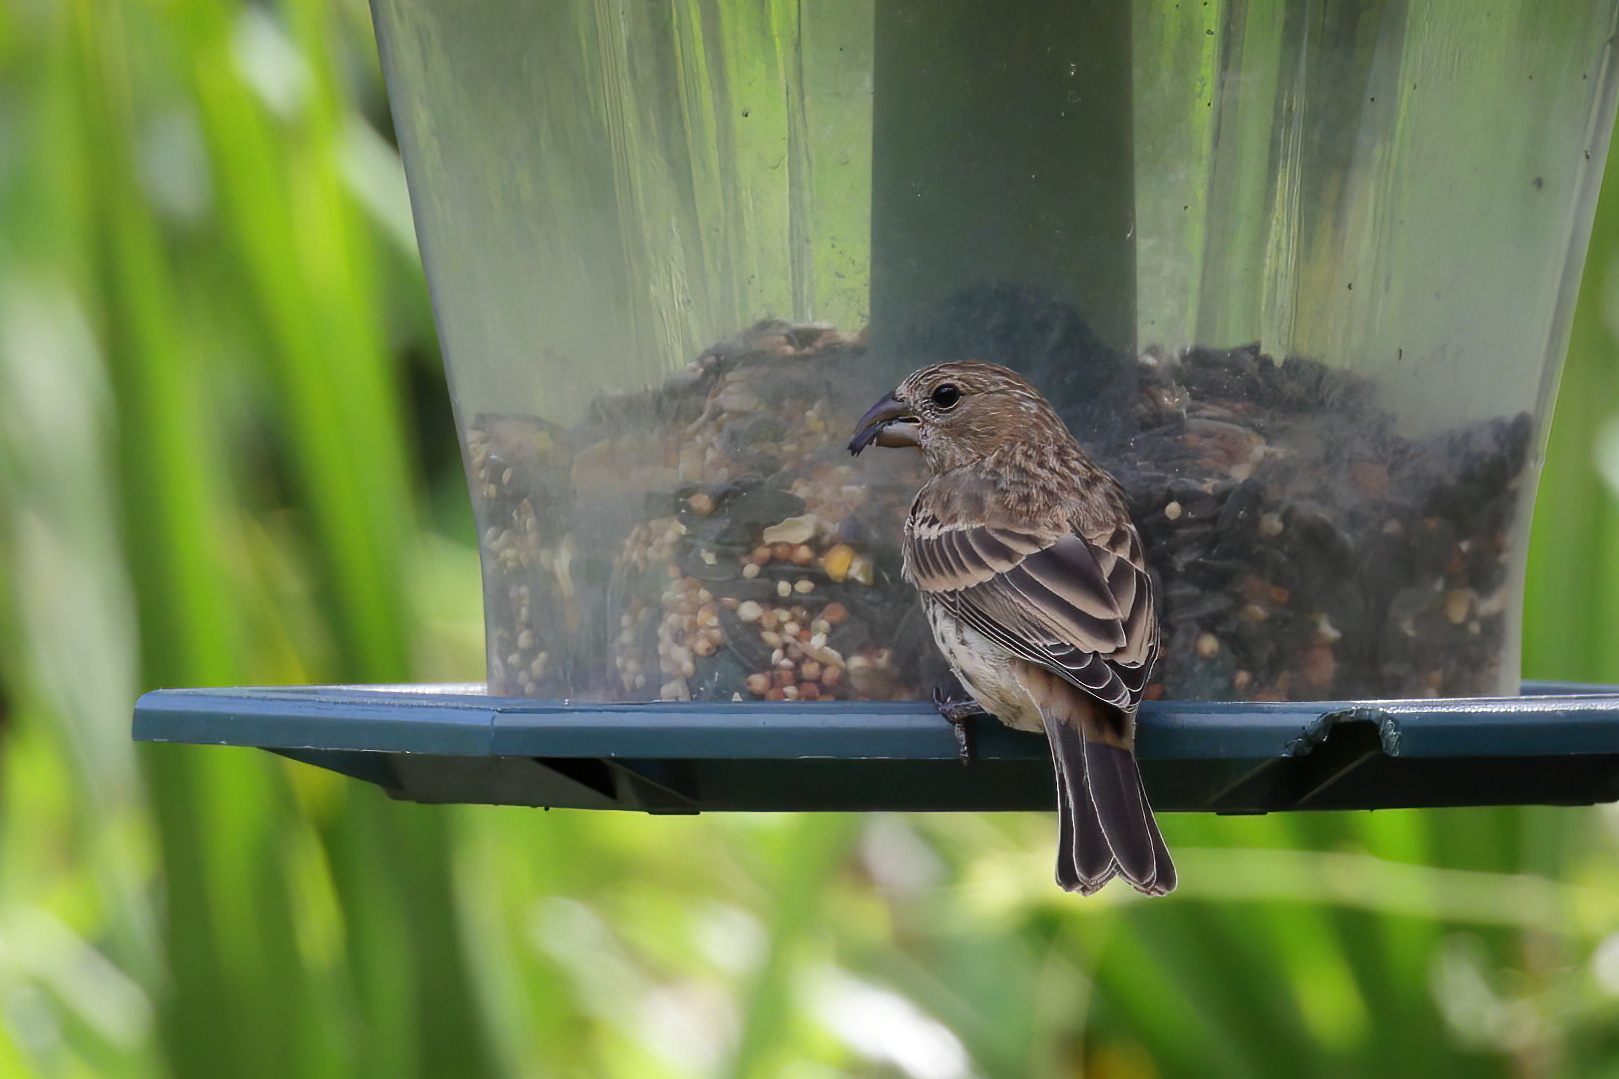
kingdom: Animalia
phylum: Chordata
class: Aves
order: Passeriformes
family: Fringillidae
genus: Haemorhous
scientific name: Haemorhous mexicanus
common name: House finch
